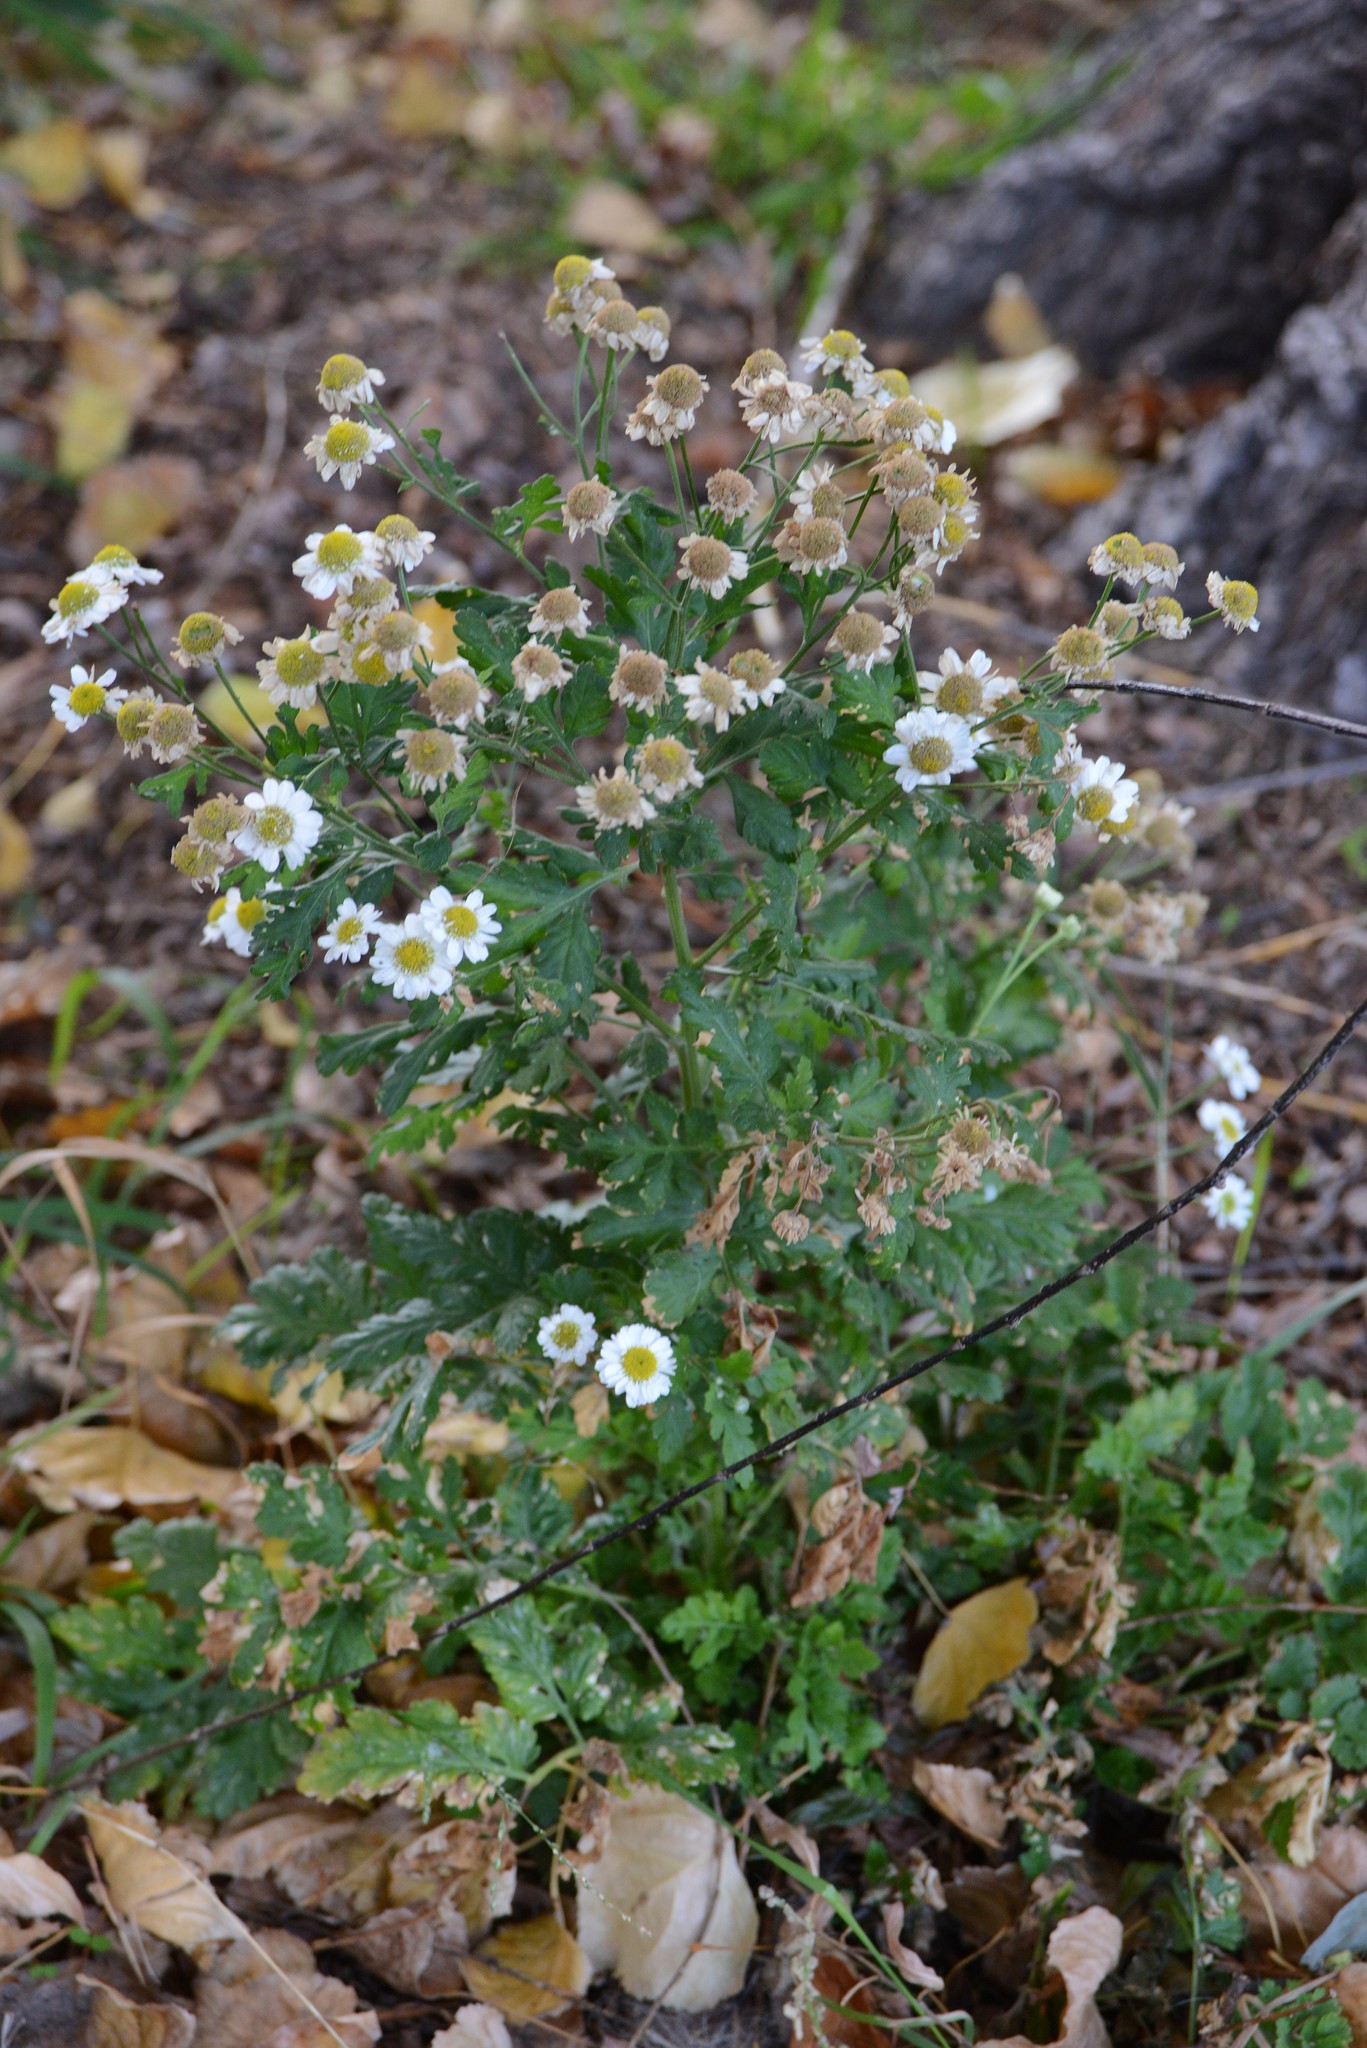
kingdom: Plantae
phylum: Tracheophyta
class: Magnoliopsida
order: Asterales
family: Asteraceae
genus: Tanacetum
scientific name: Tanacetum parthenium
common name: Feverfew
